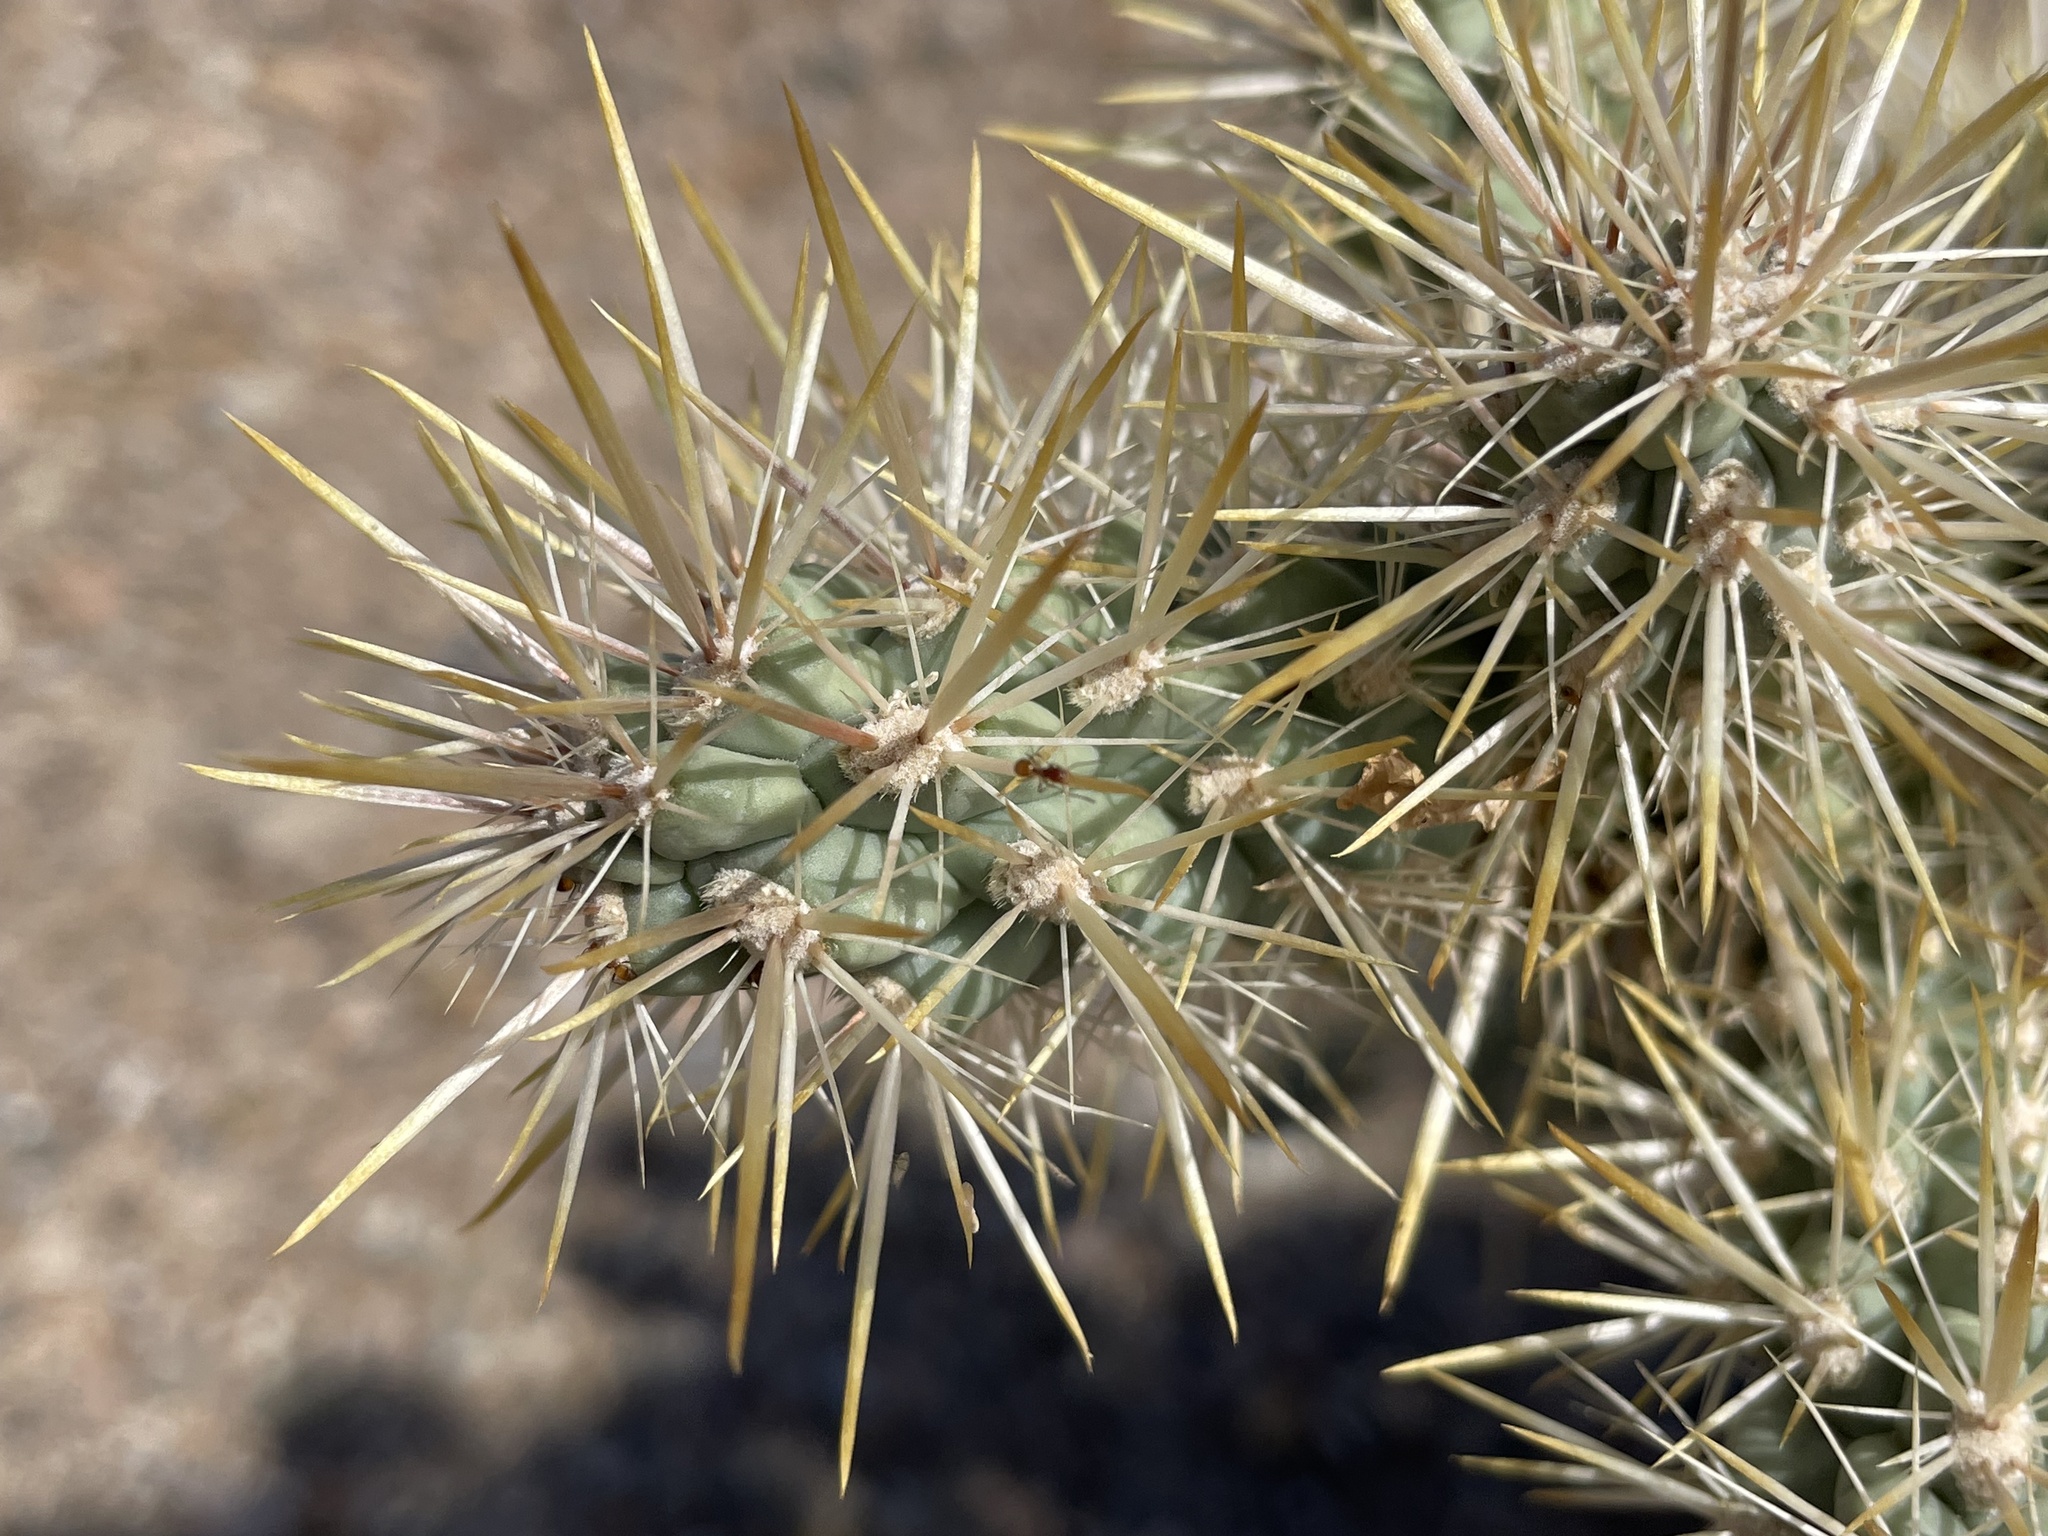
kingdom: Plantae
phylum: Tracheophyta
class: Magnoliopsida
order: Caryophyllales
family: Cactaceae
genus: Cylindropuntia
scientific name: Cylindropuntia echinocarpa
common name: Ground cholla
